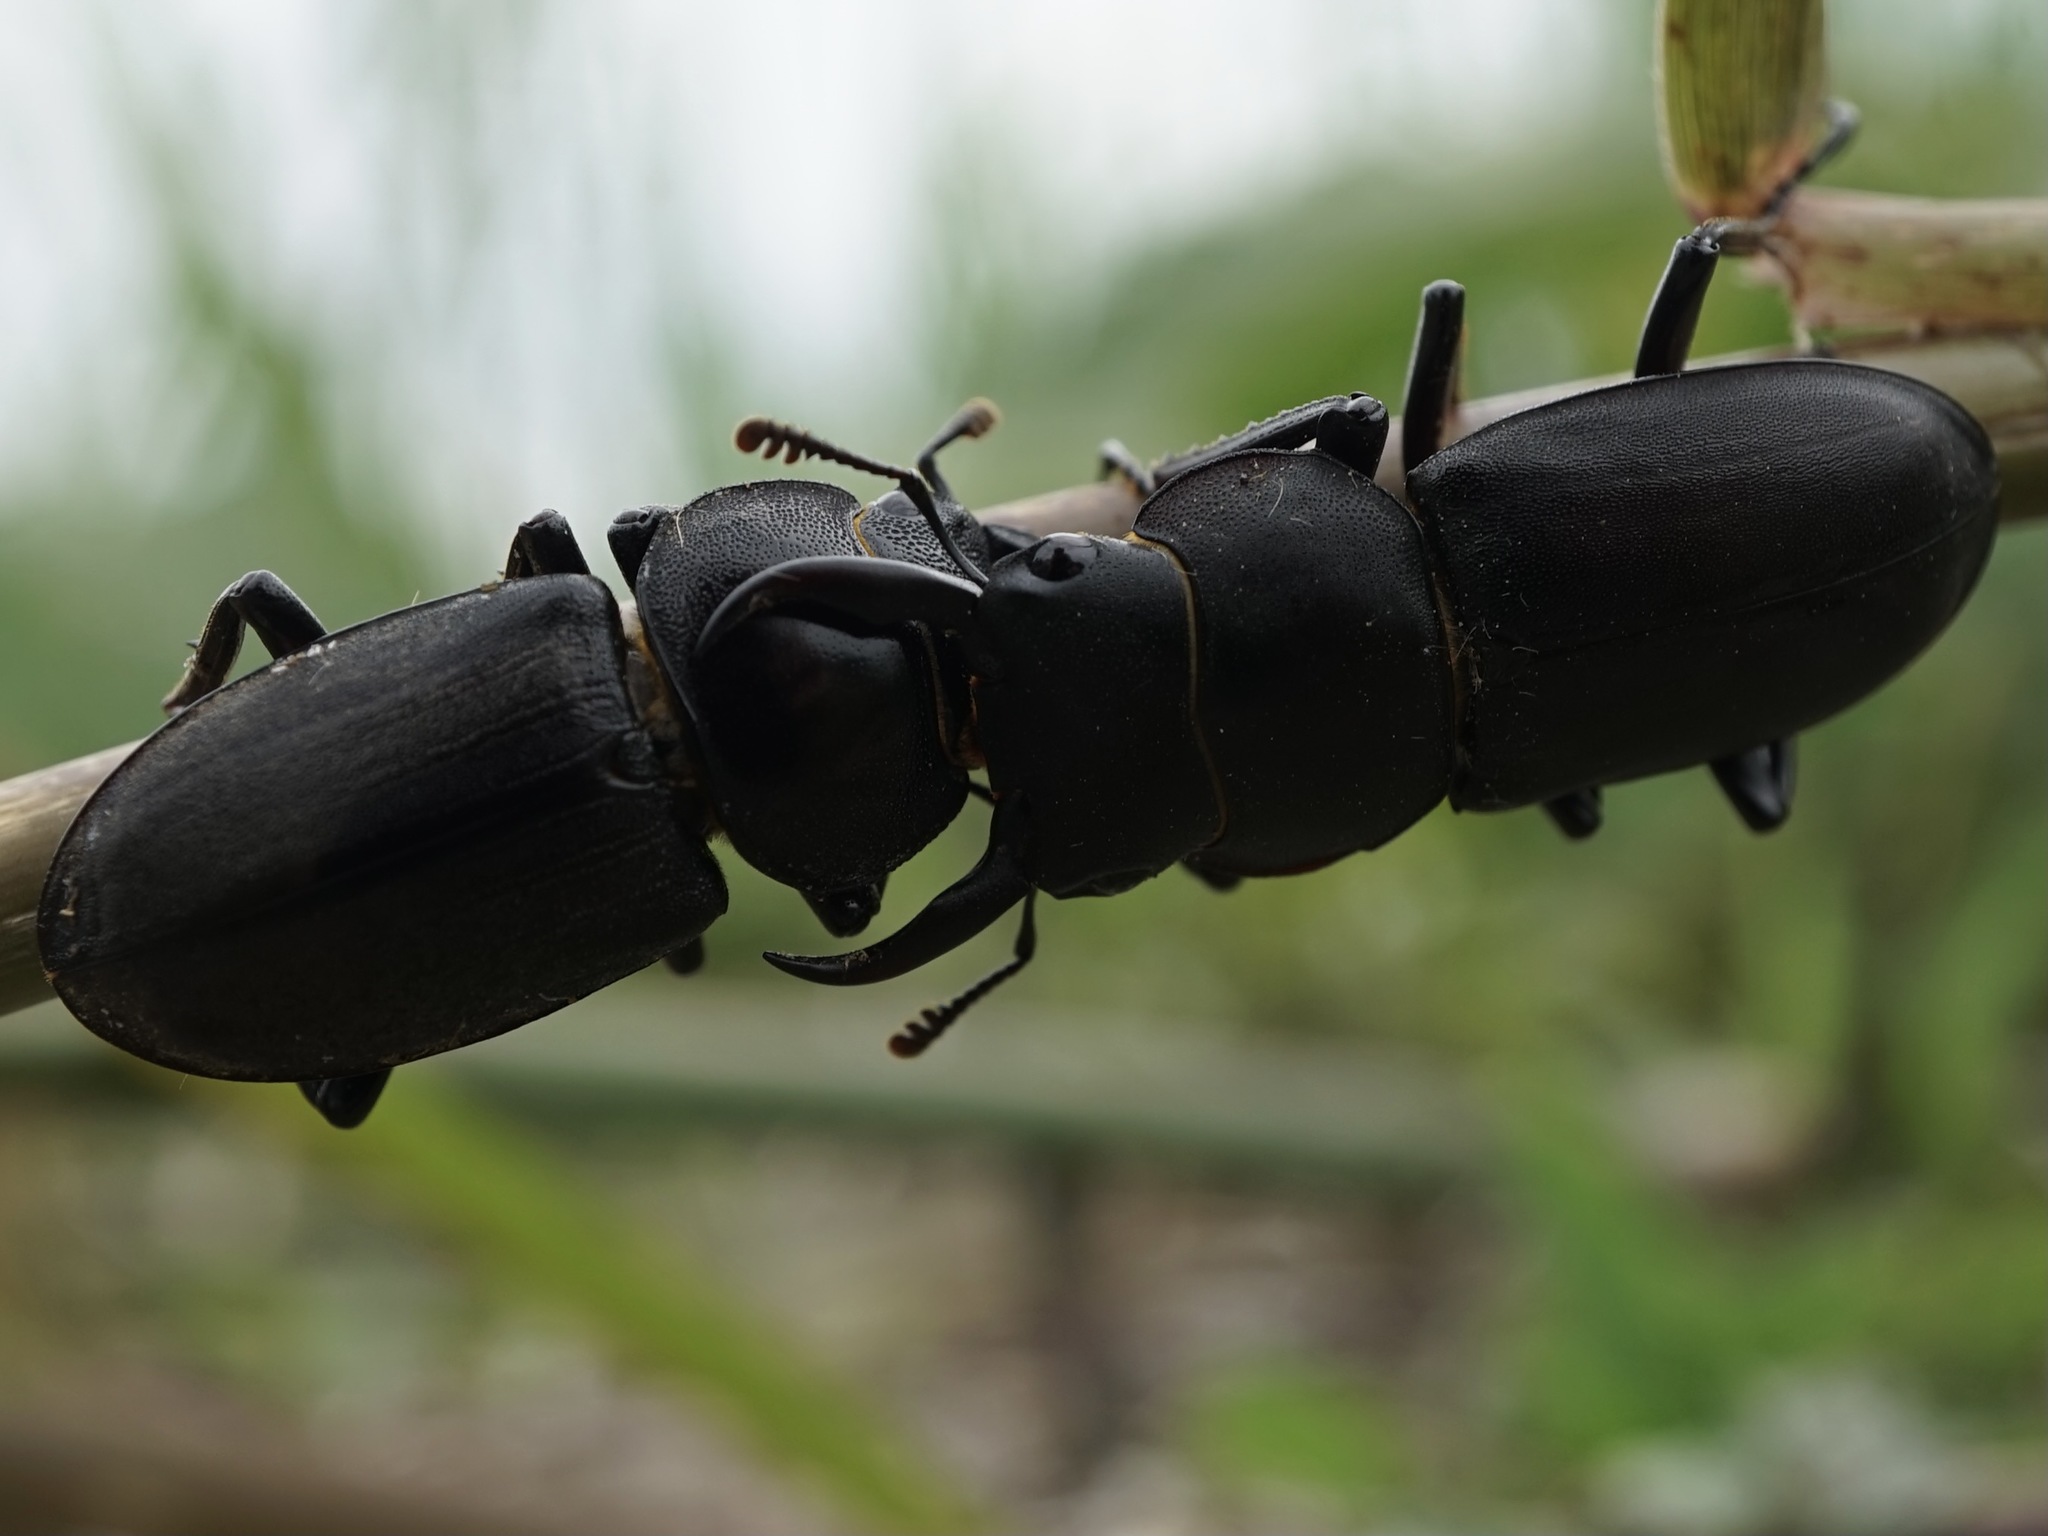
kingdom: Animalia
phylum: Arthropoda
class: Insecta
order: Coleoptera
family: Lucanidae
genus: Dorcus
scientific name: Dorcus rectus
